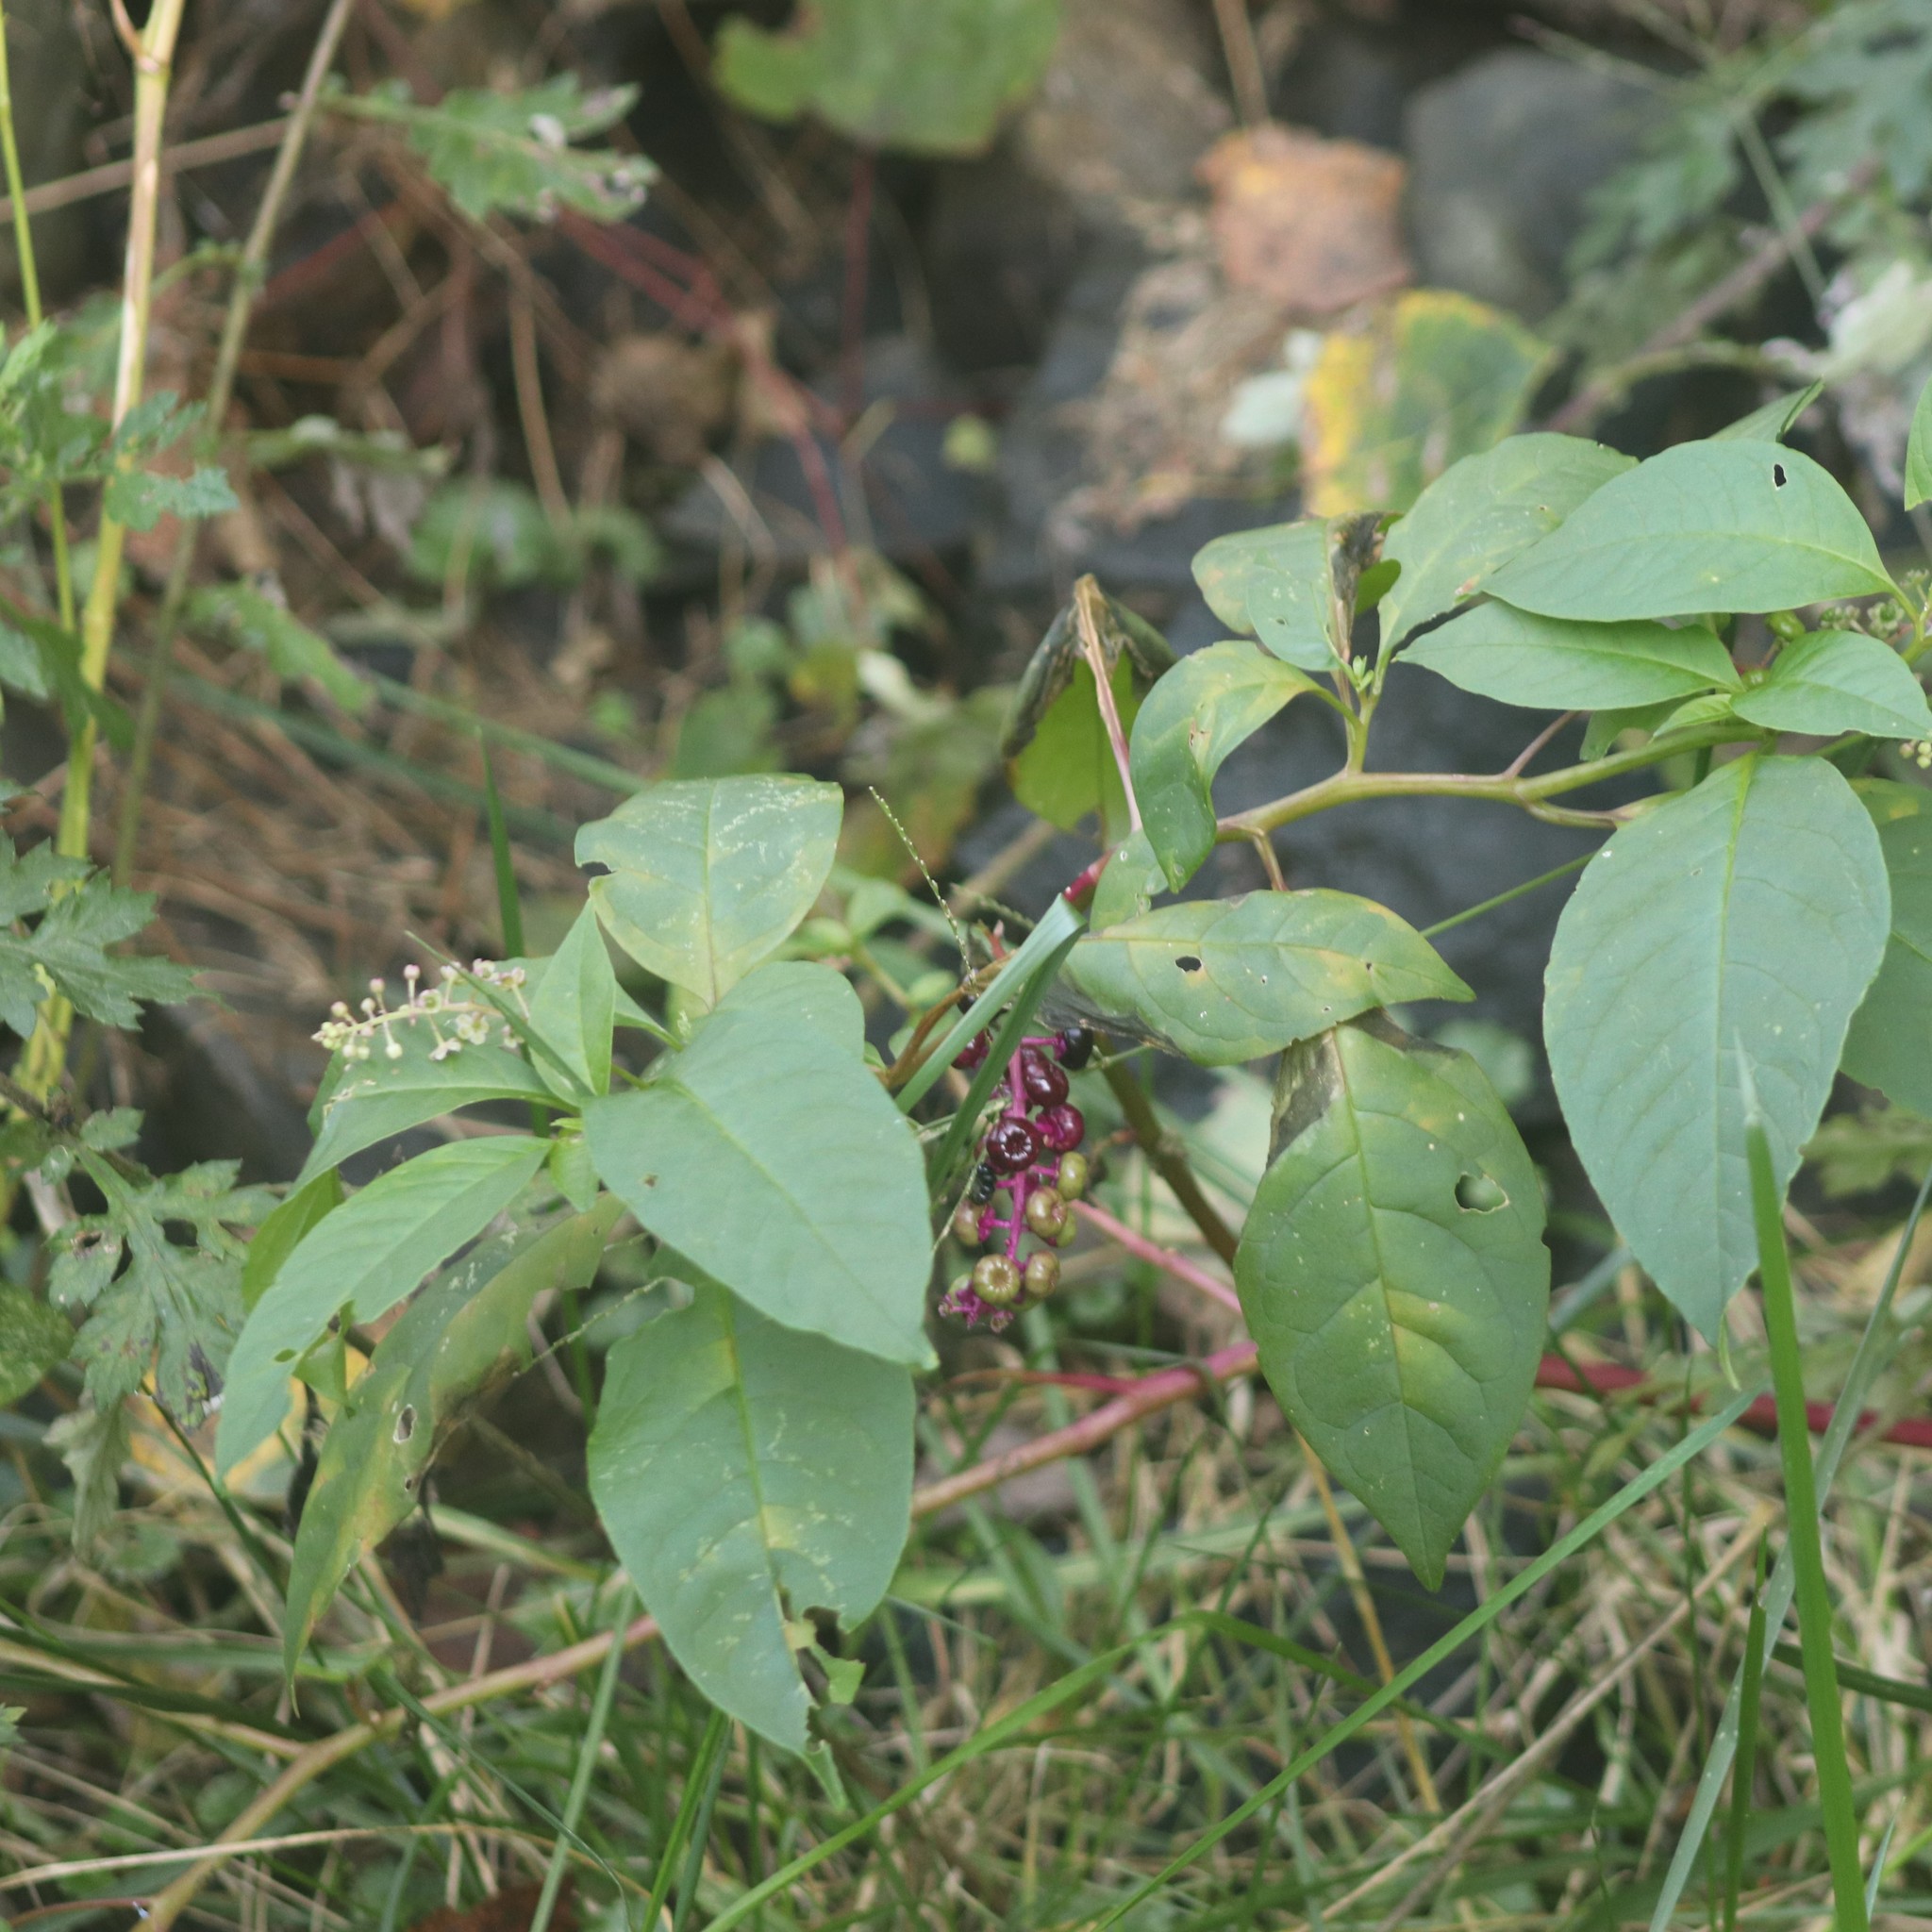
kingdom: Plantae
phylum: Tracheophyta
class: Magnoliopsida
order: Caryophyllales
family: Phytolaccaceae
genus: Phytolacca
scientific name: Phytolacca americana
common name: American pokeweed
